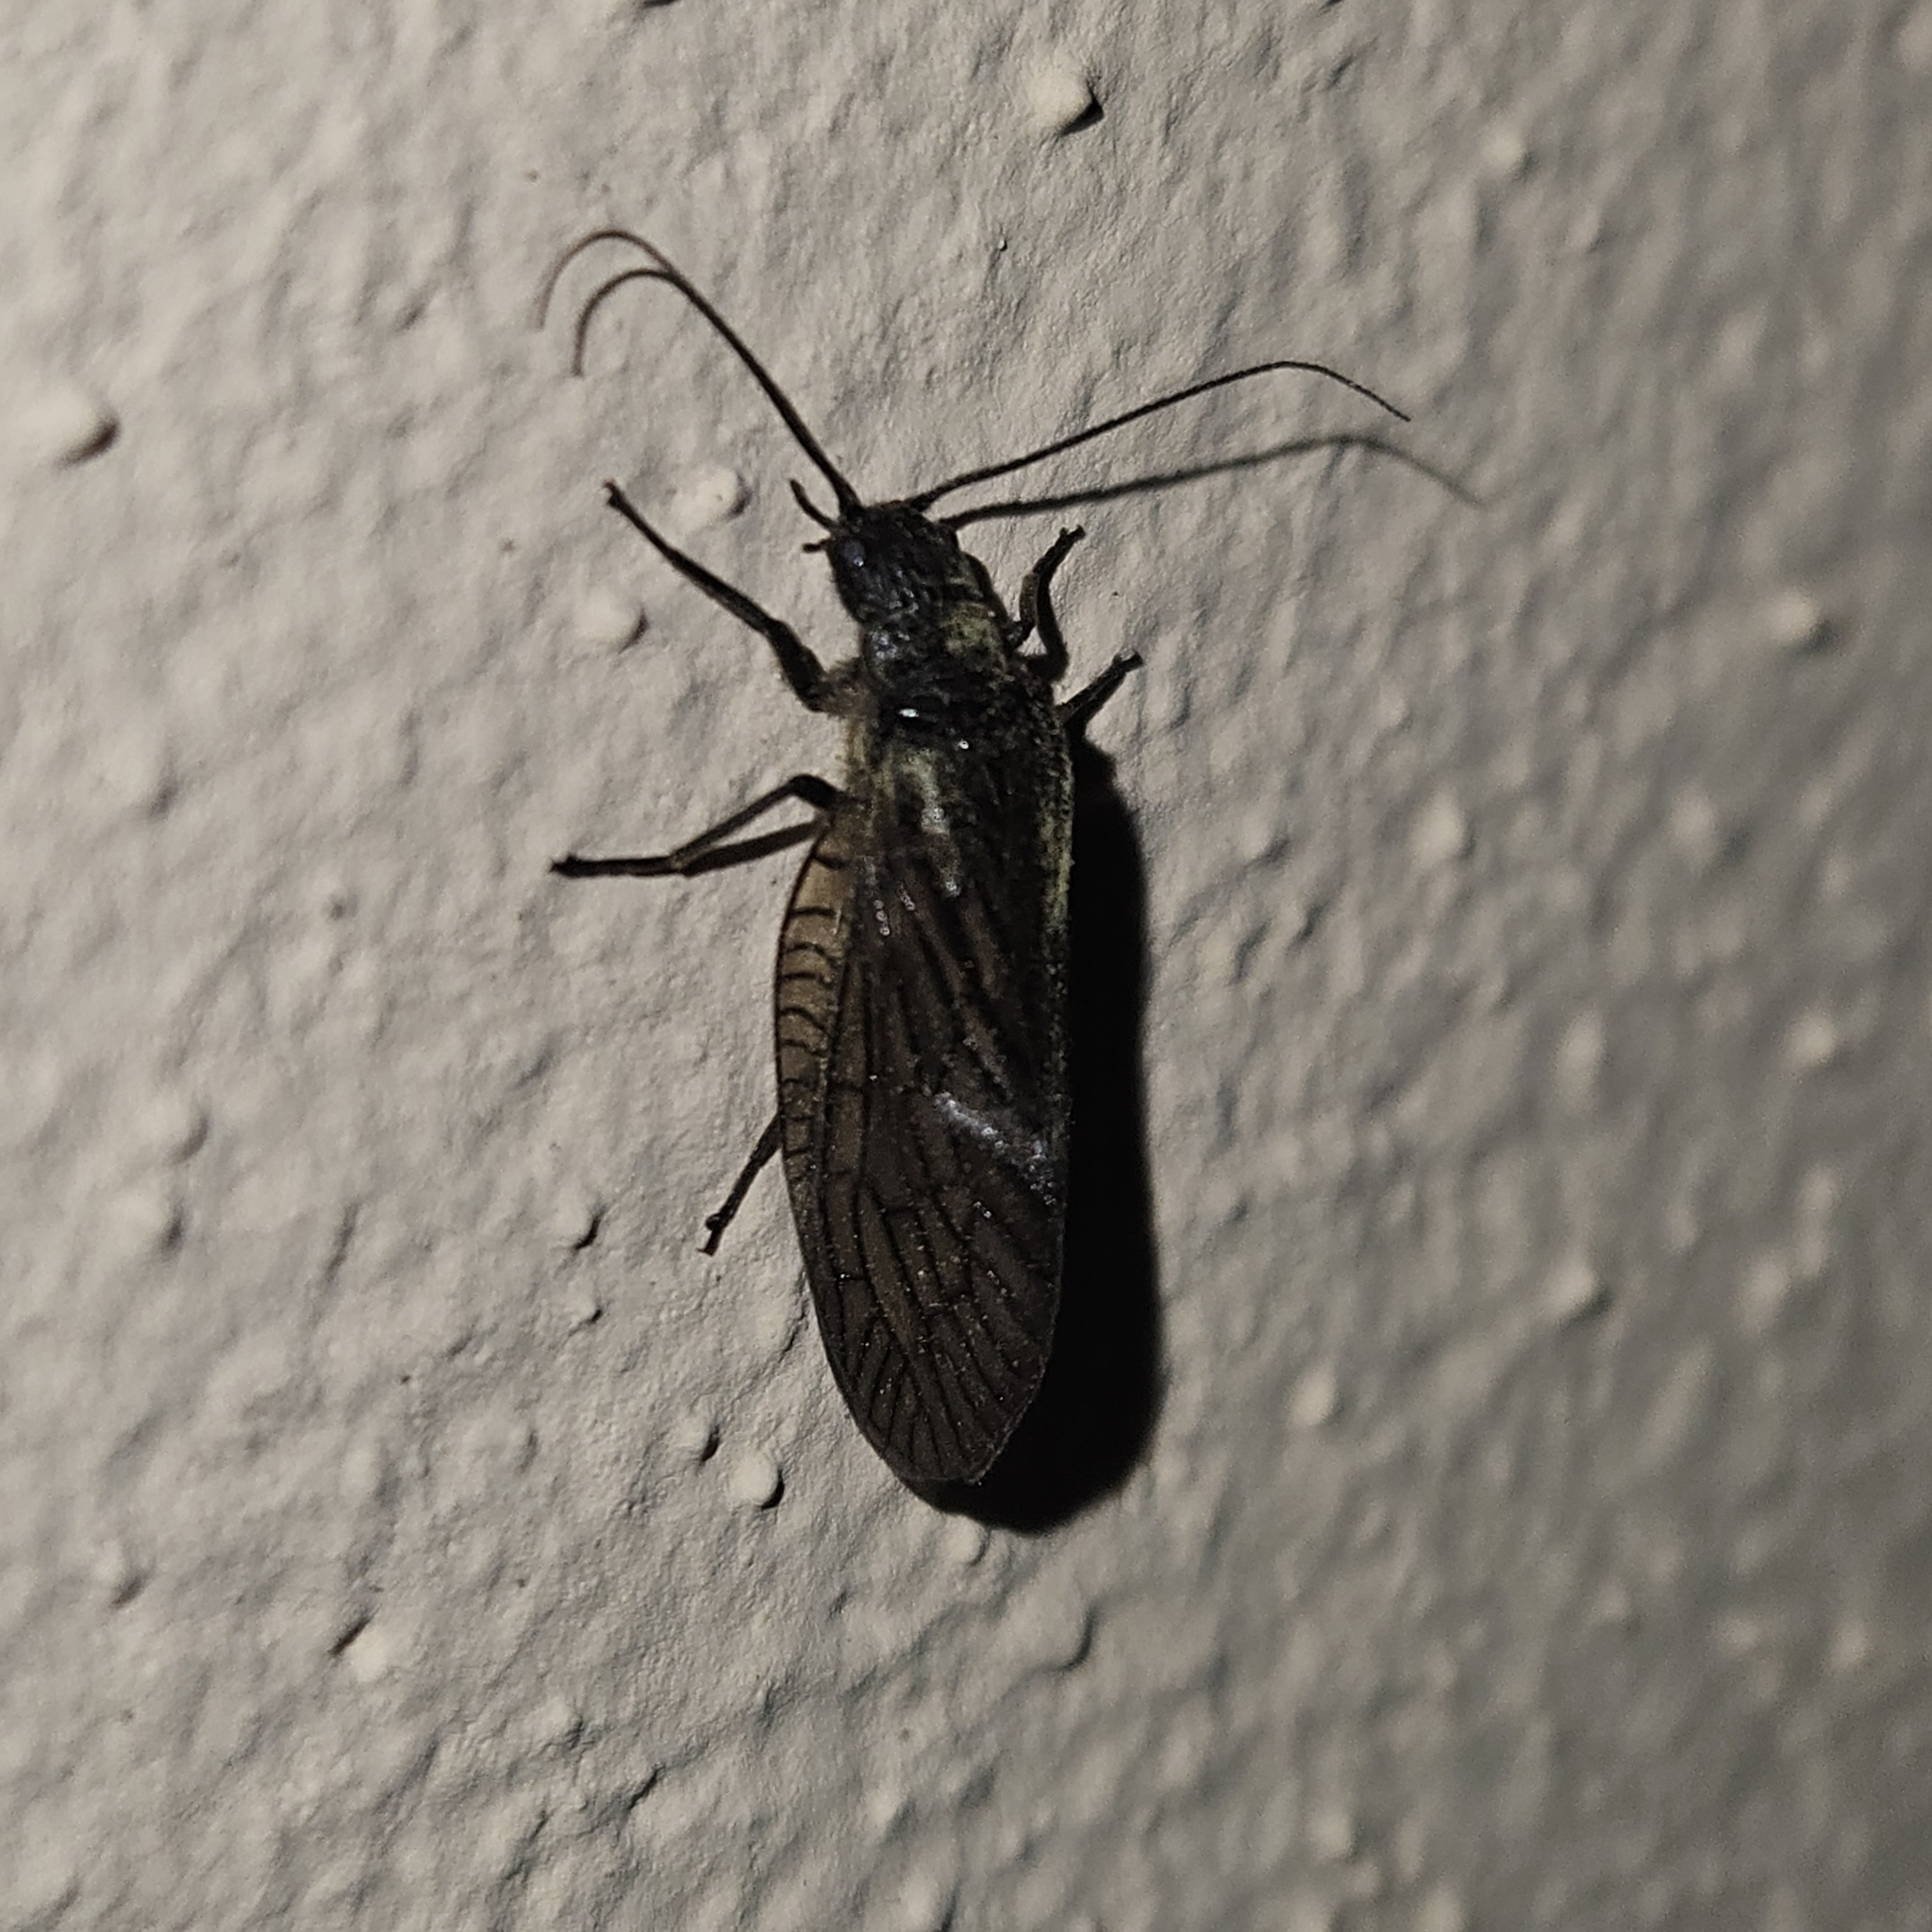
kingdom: Animalia
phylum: Arthropoda
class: Insecta
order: Megaloptera
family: Sialidae
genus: Sialis
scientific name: Sialis
